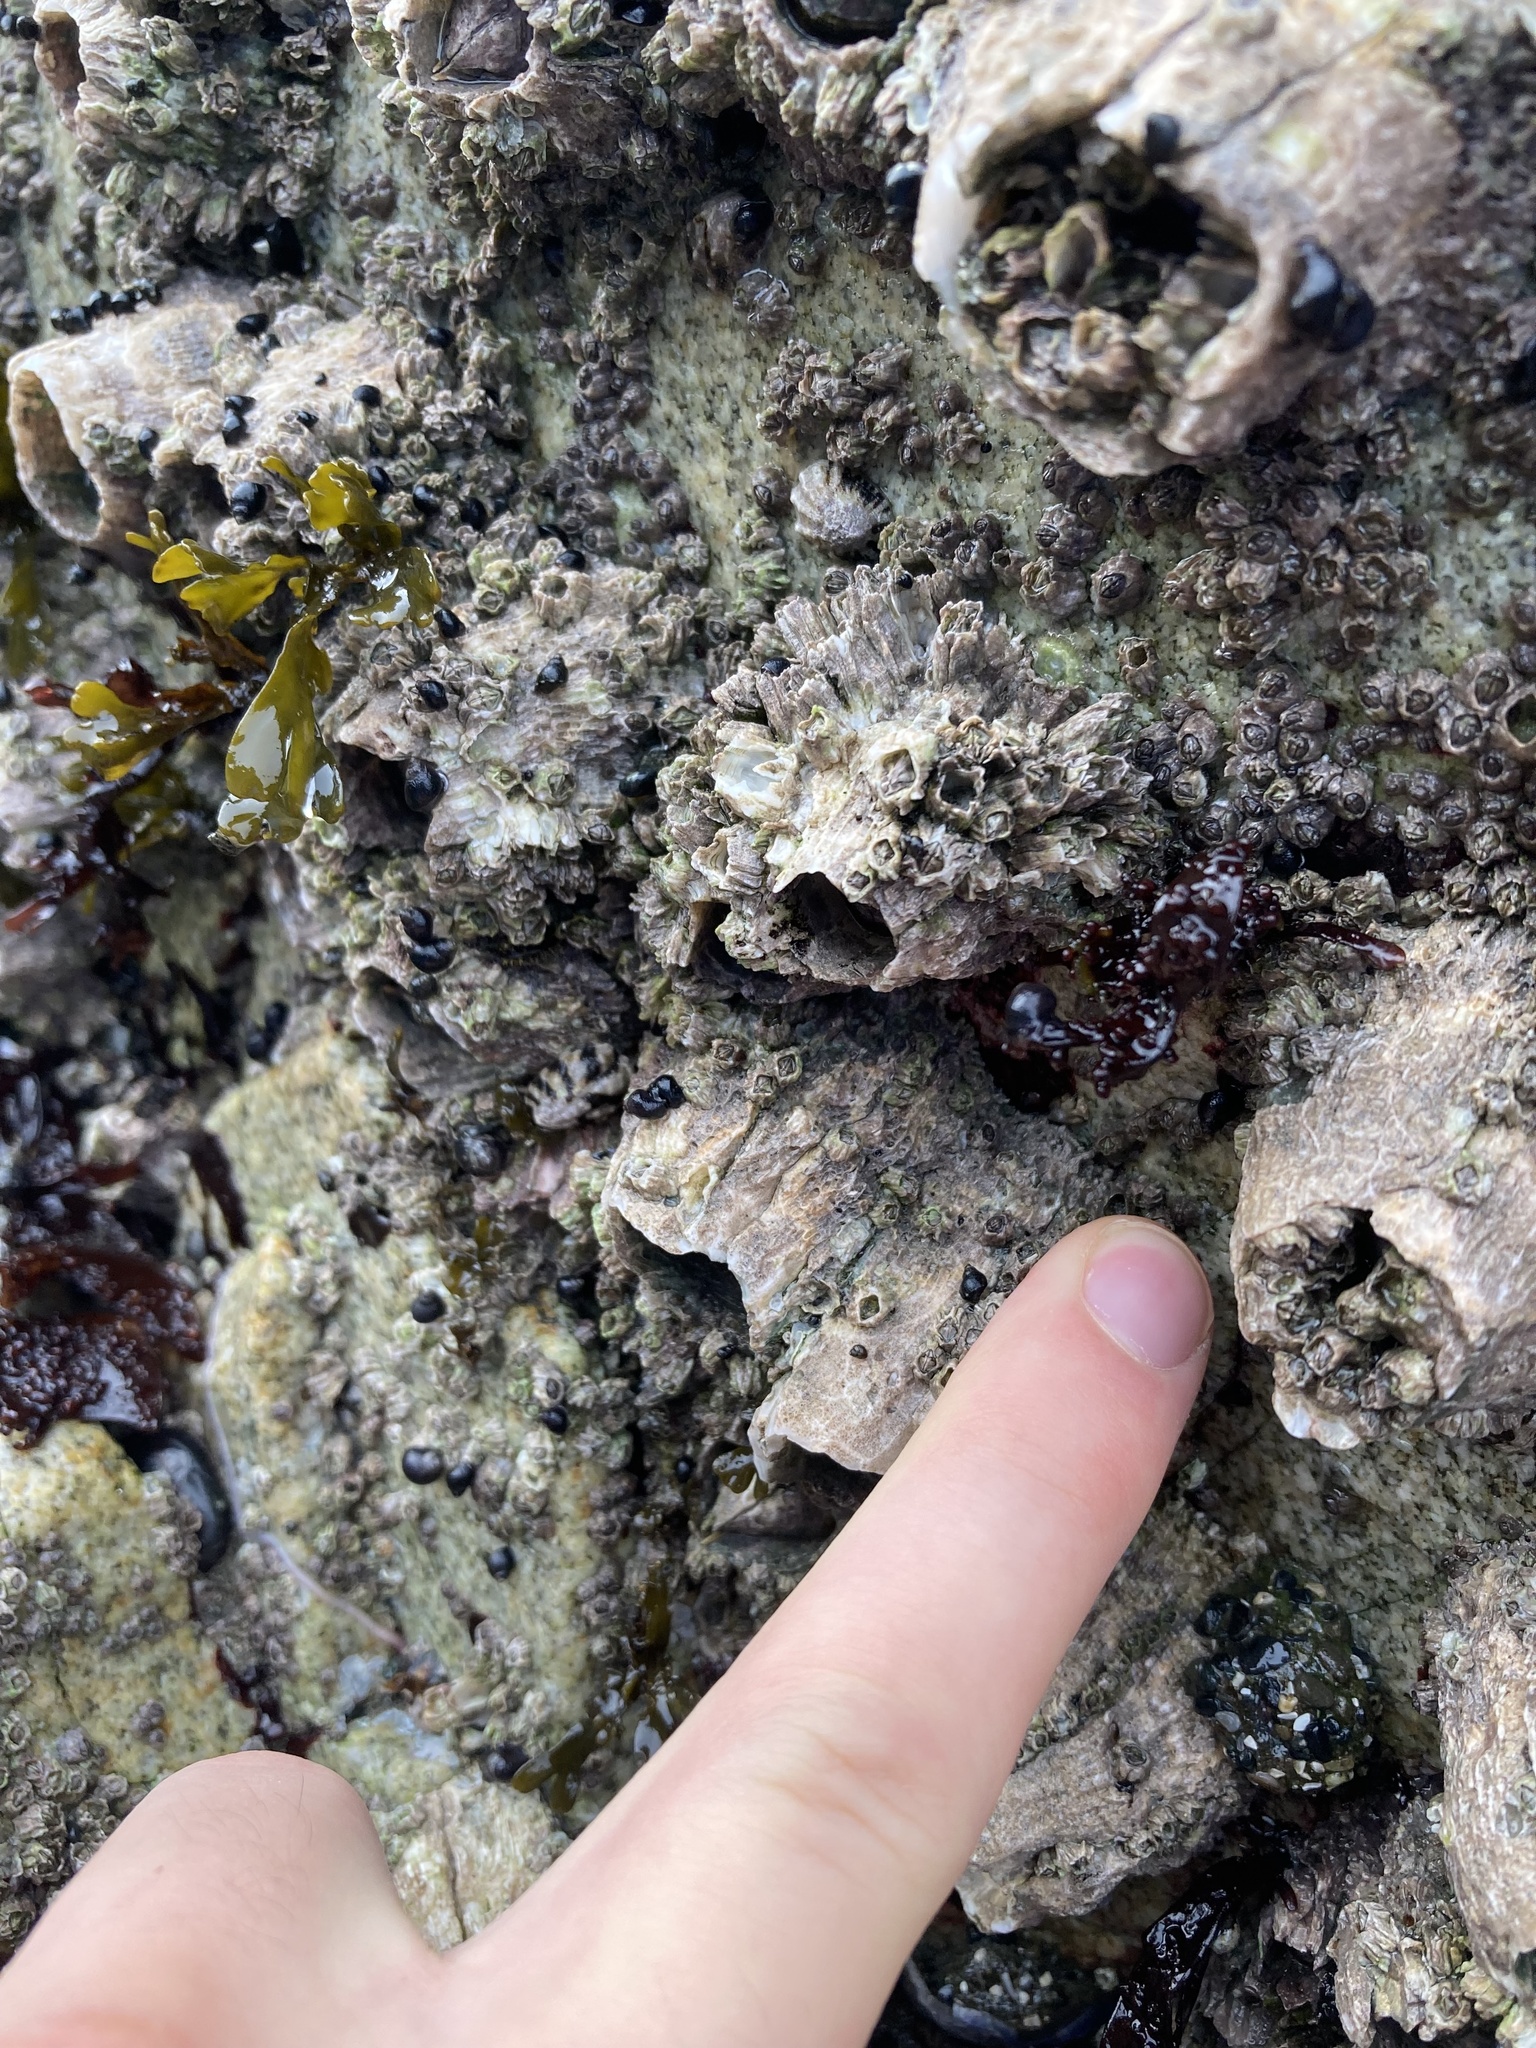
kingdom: Animalia
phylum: Arthropoda
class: Maxillopoda
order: Sessilia
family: Archaeobalanidae
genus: Semibalanus
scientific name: Semibalanus cariosus
